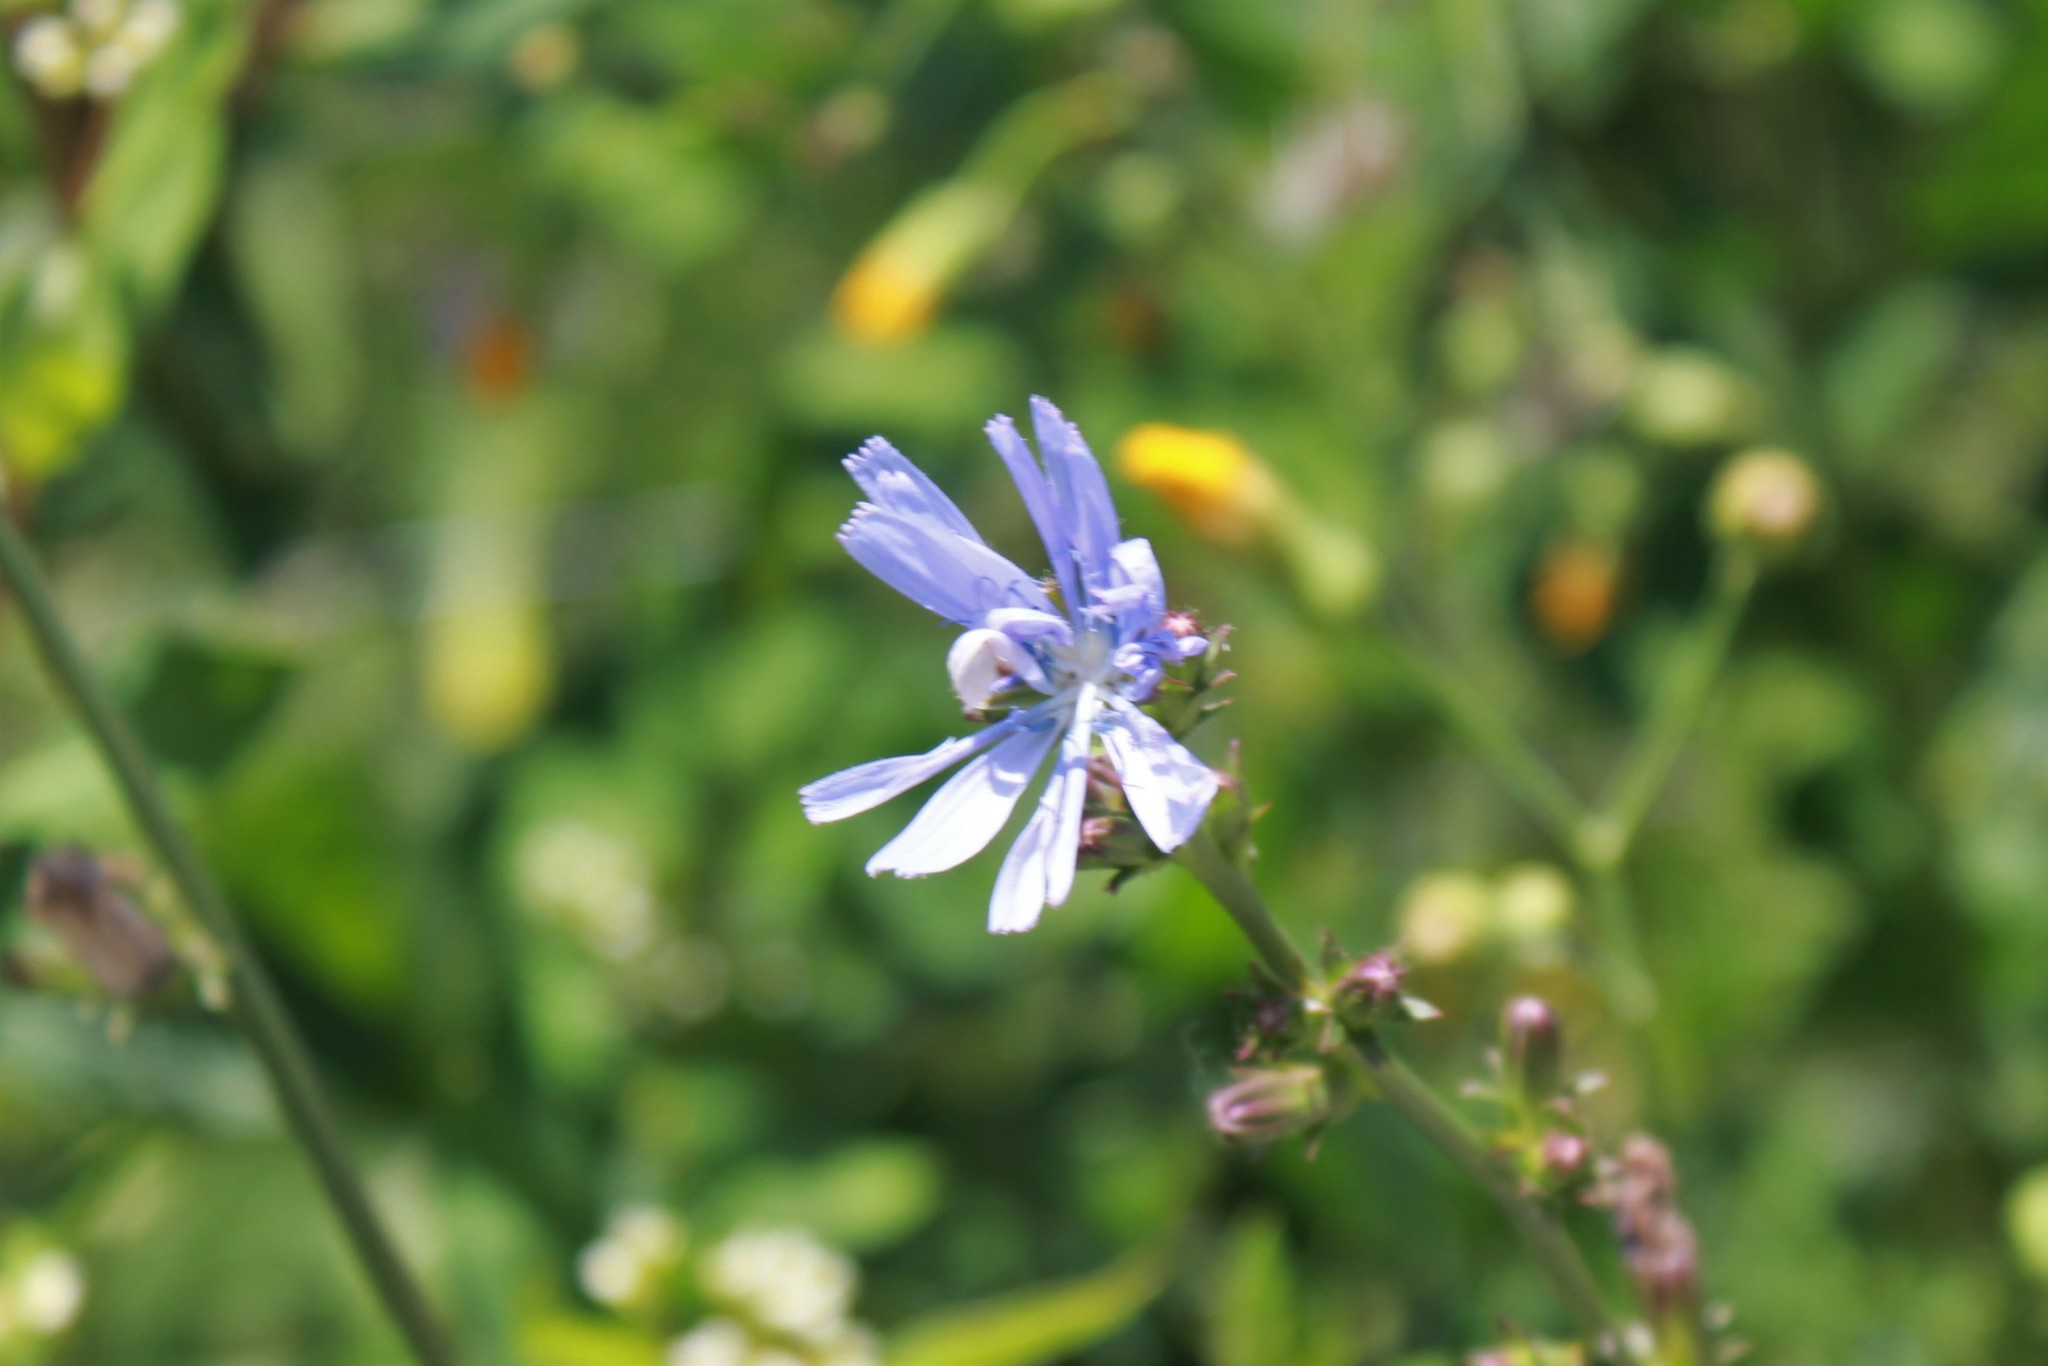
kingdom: Plantae
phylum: Tracheophyta
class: Magnoliopsida
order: Asterales
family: Asteraceae
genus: Cichorium
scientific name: Cichorium intybus
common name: Chicory
